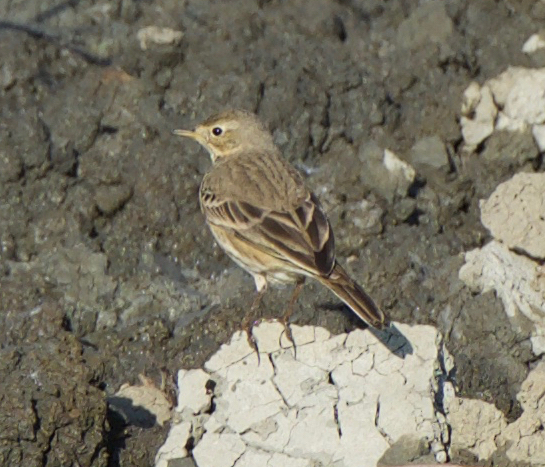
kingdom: Animalia
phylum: Chordata
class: Aves
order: Passeriformes
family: Motacillidae
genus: Anthus
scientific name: Anthus rubescens
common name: Buff-bellied pipit
